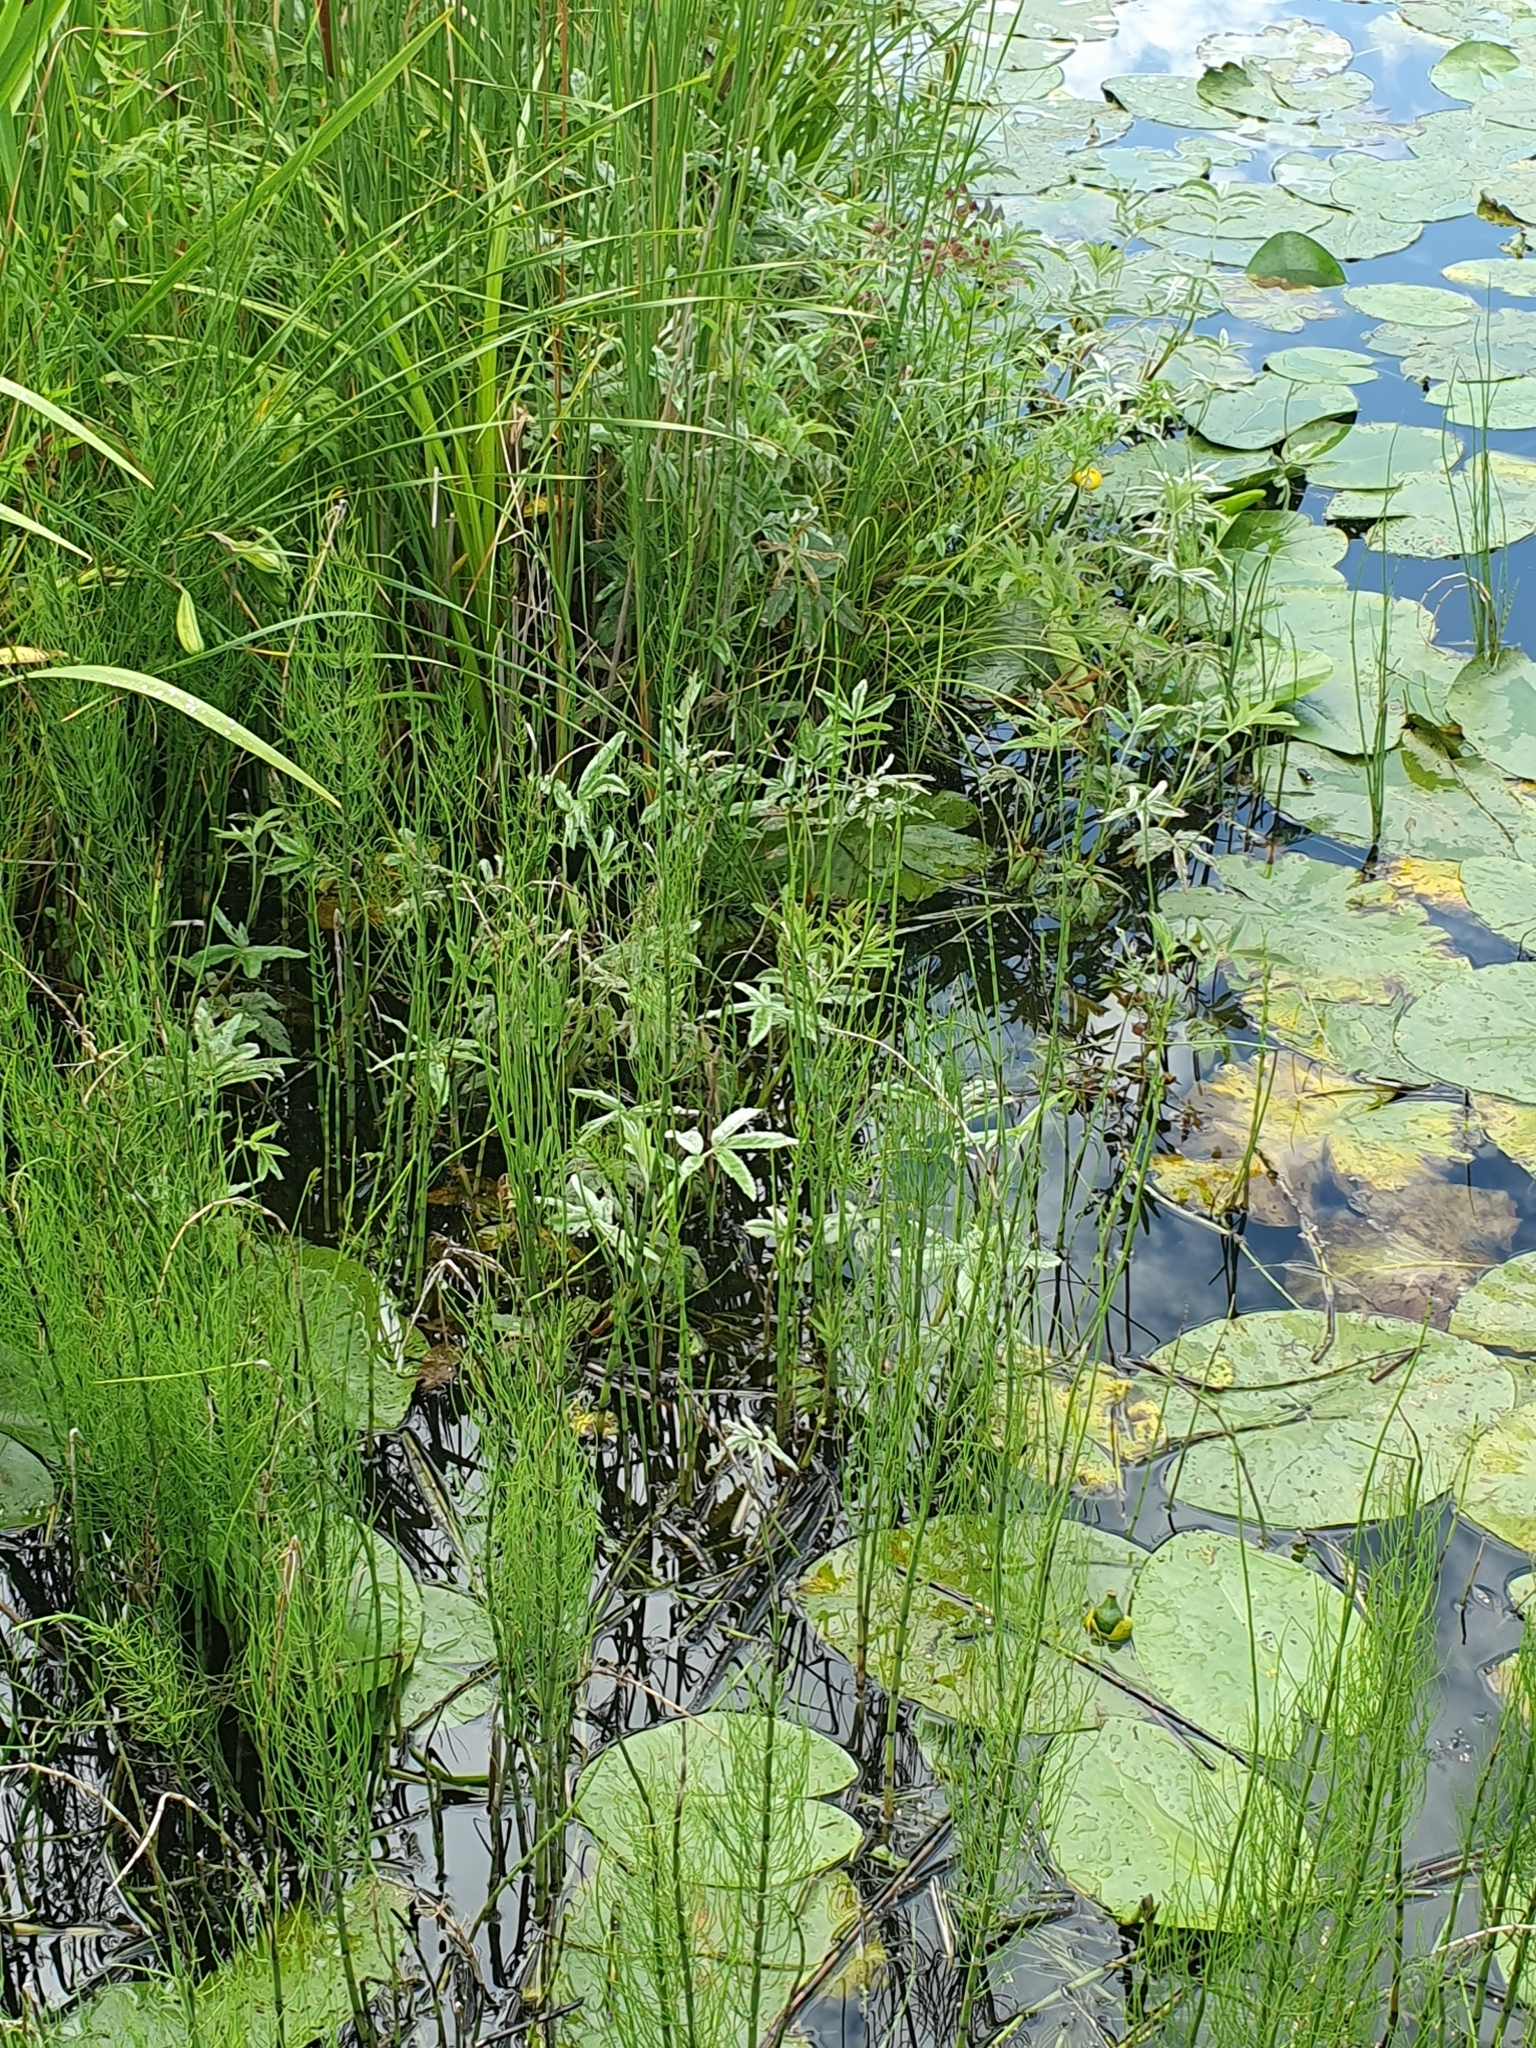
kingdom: Plantae
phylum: Tracheophyta
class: Magnoliopsida
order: Rosales
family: Rosaceae
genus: Comarum
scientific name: Comarum palustre
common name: Marsh cinquefoil
